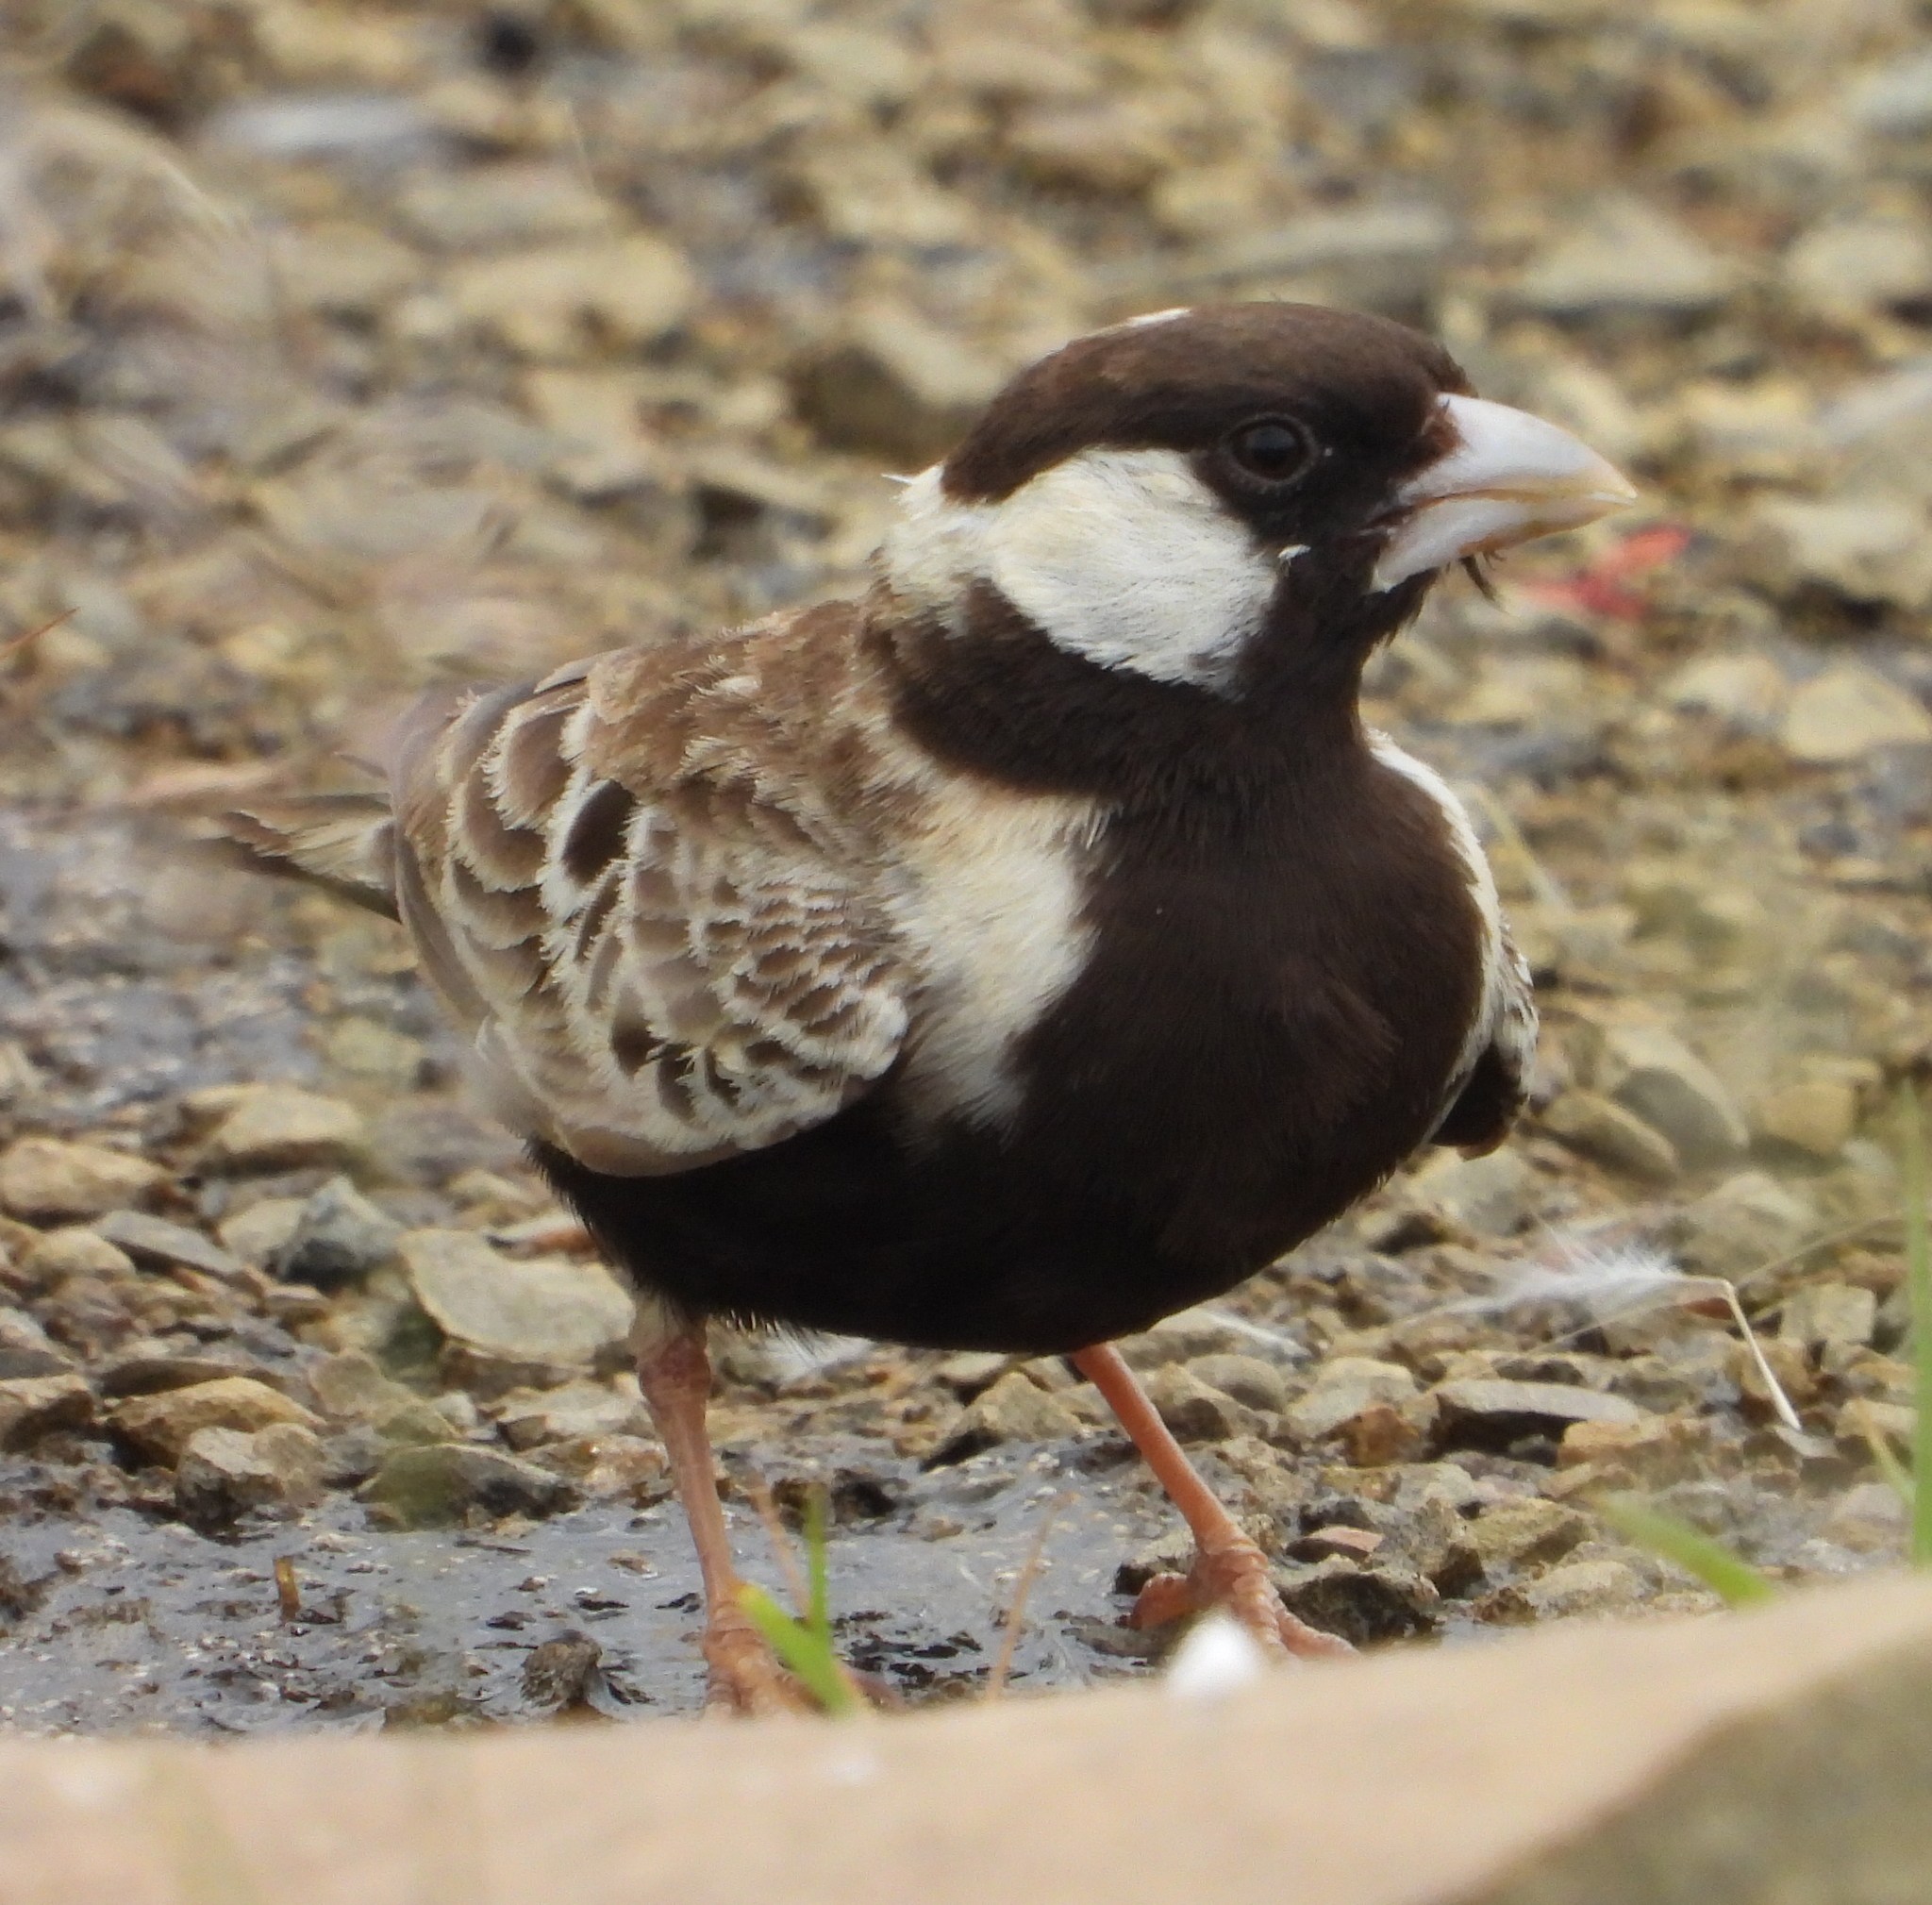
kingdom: Animalia
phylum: Chordata
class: Aves
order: Passeriformes
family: Alaudidae
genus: Eremopterix
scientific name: Eremopterix verticalis
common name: Grey-backed sparrow-lark
